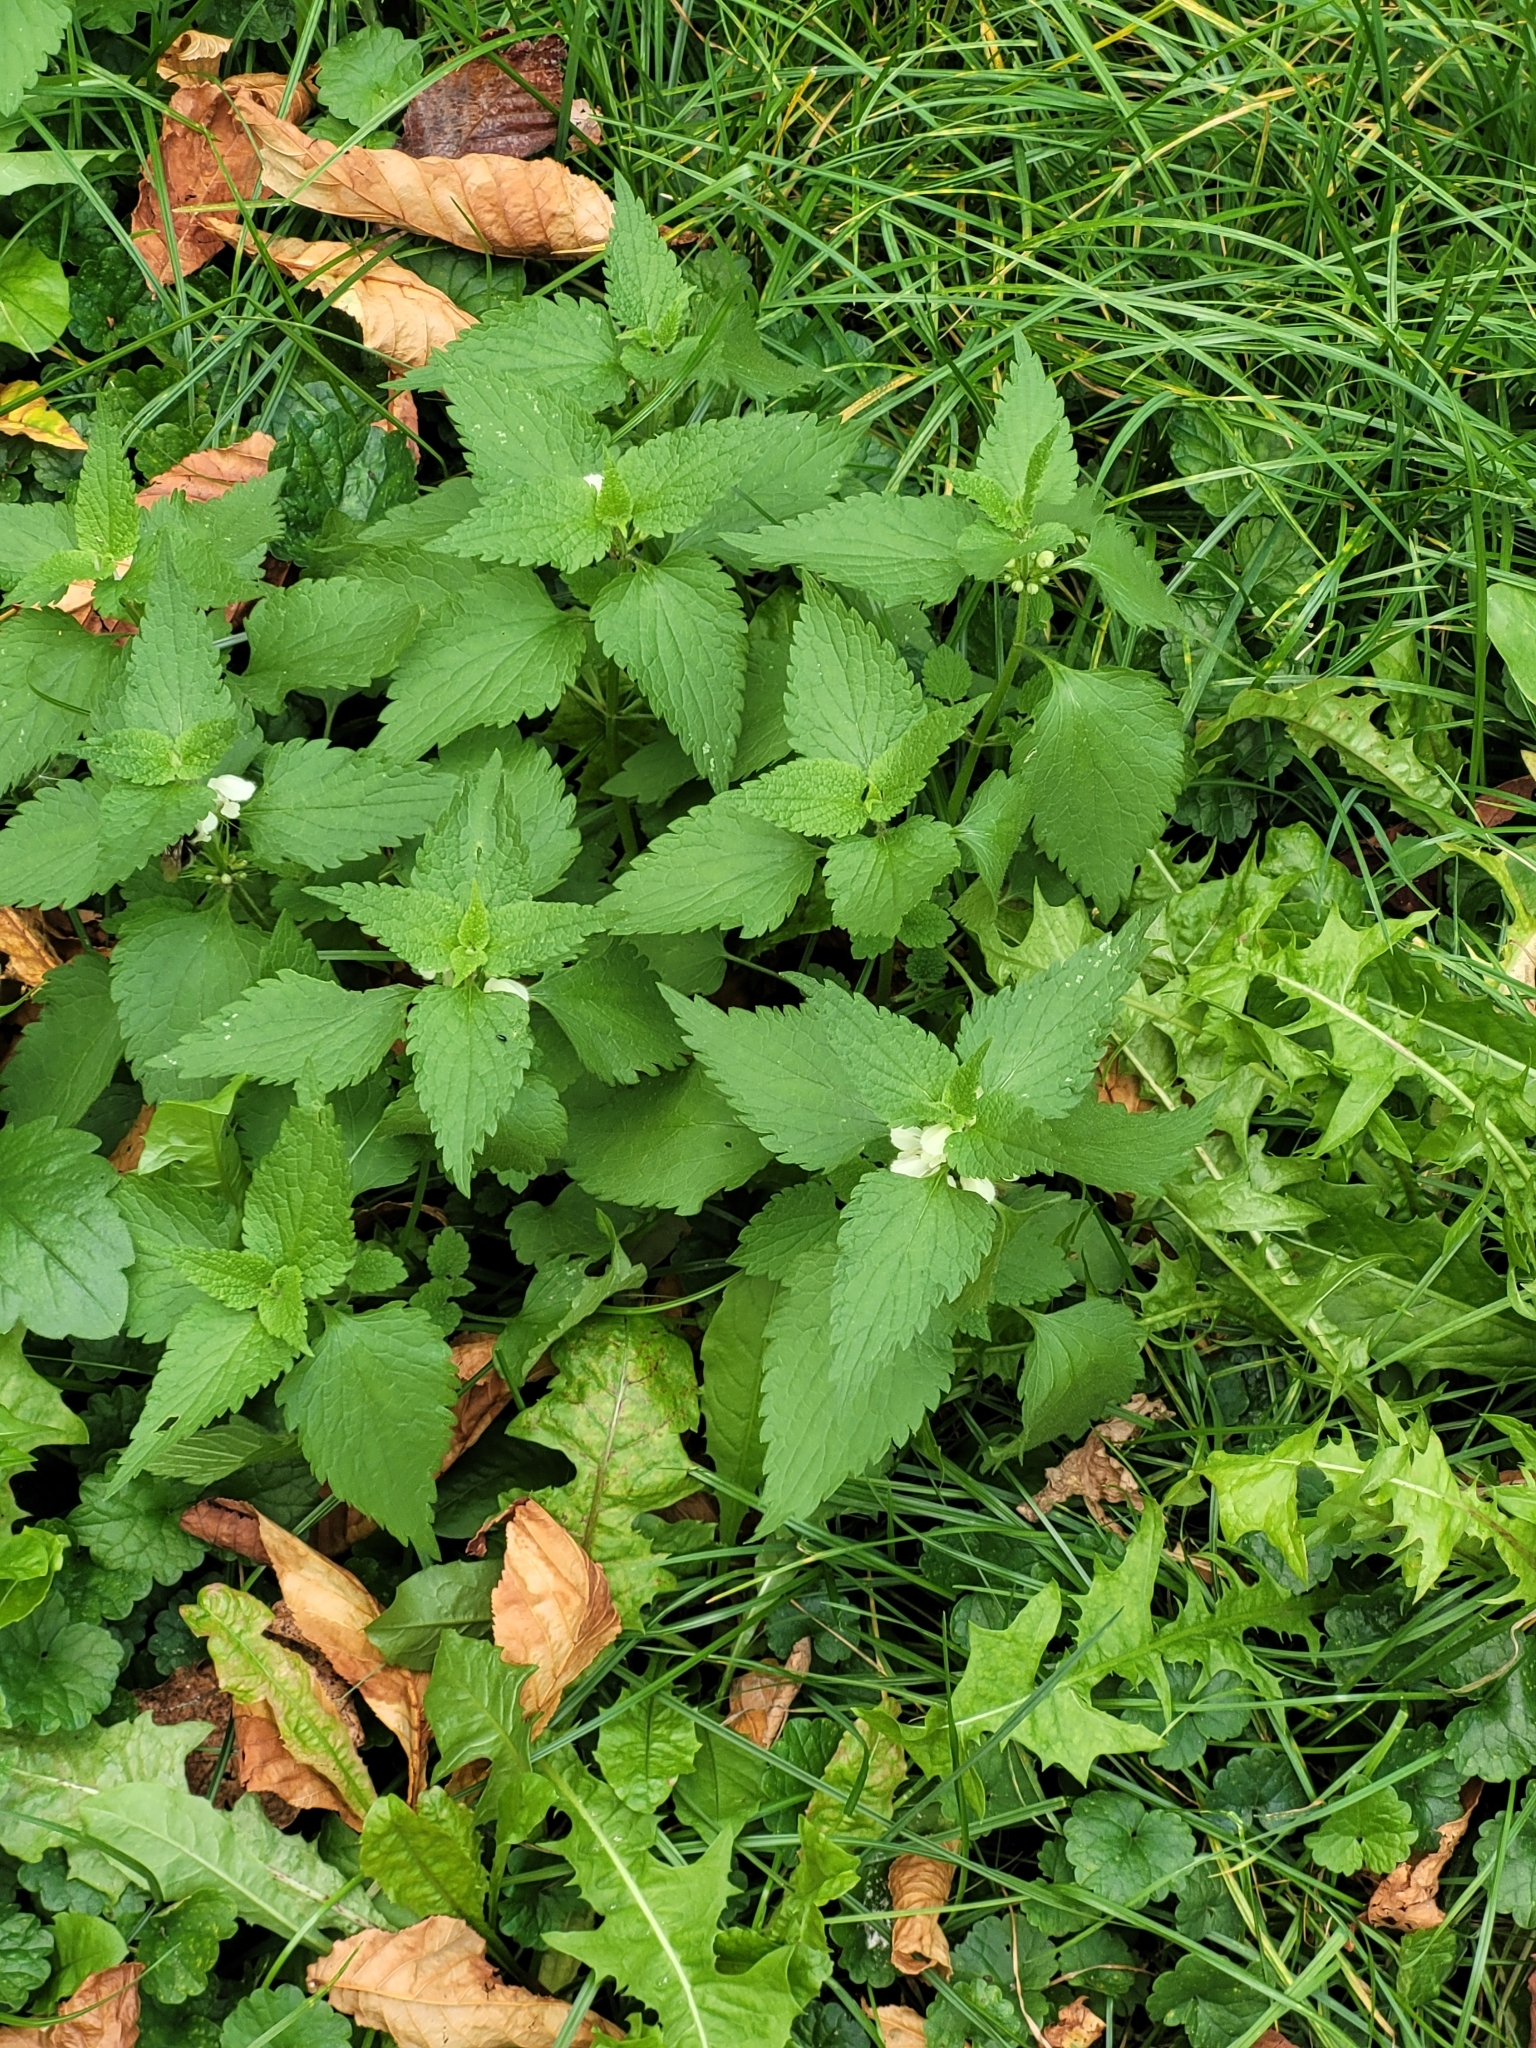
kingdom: Plantae
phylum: Tracheophyta
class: Magnoliopsida
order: Lamiales
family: Lamiaceae
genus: Lamium
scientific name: Lamium album
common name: White dead-nettle
